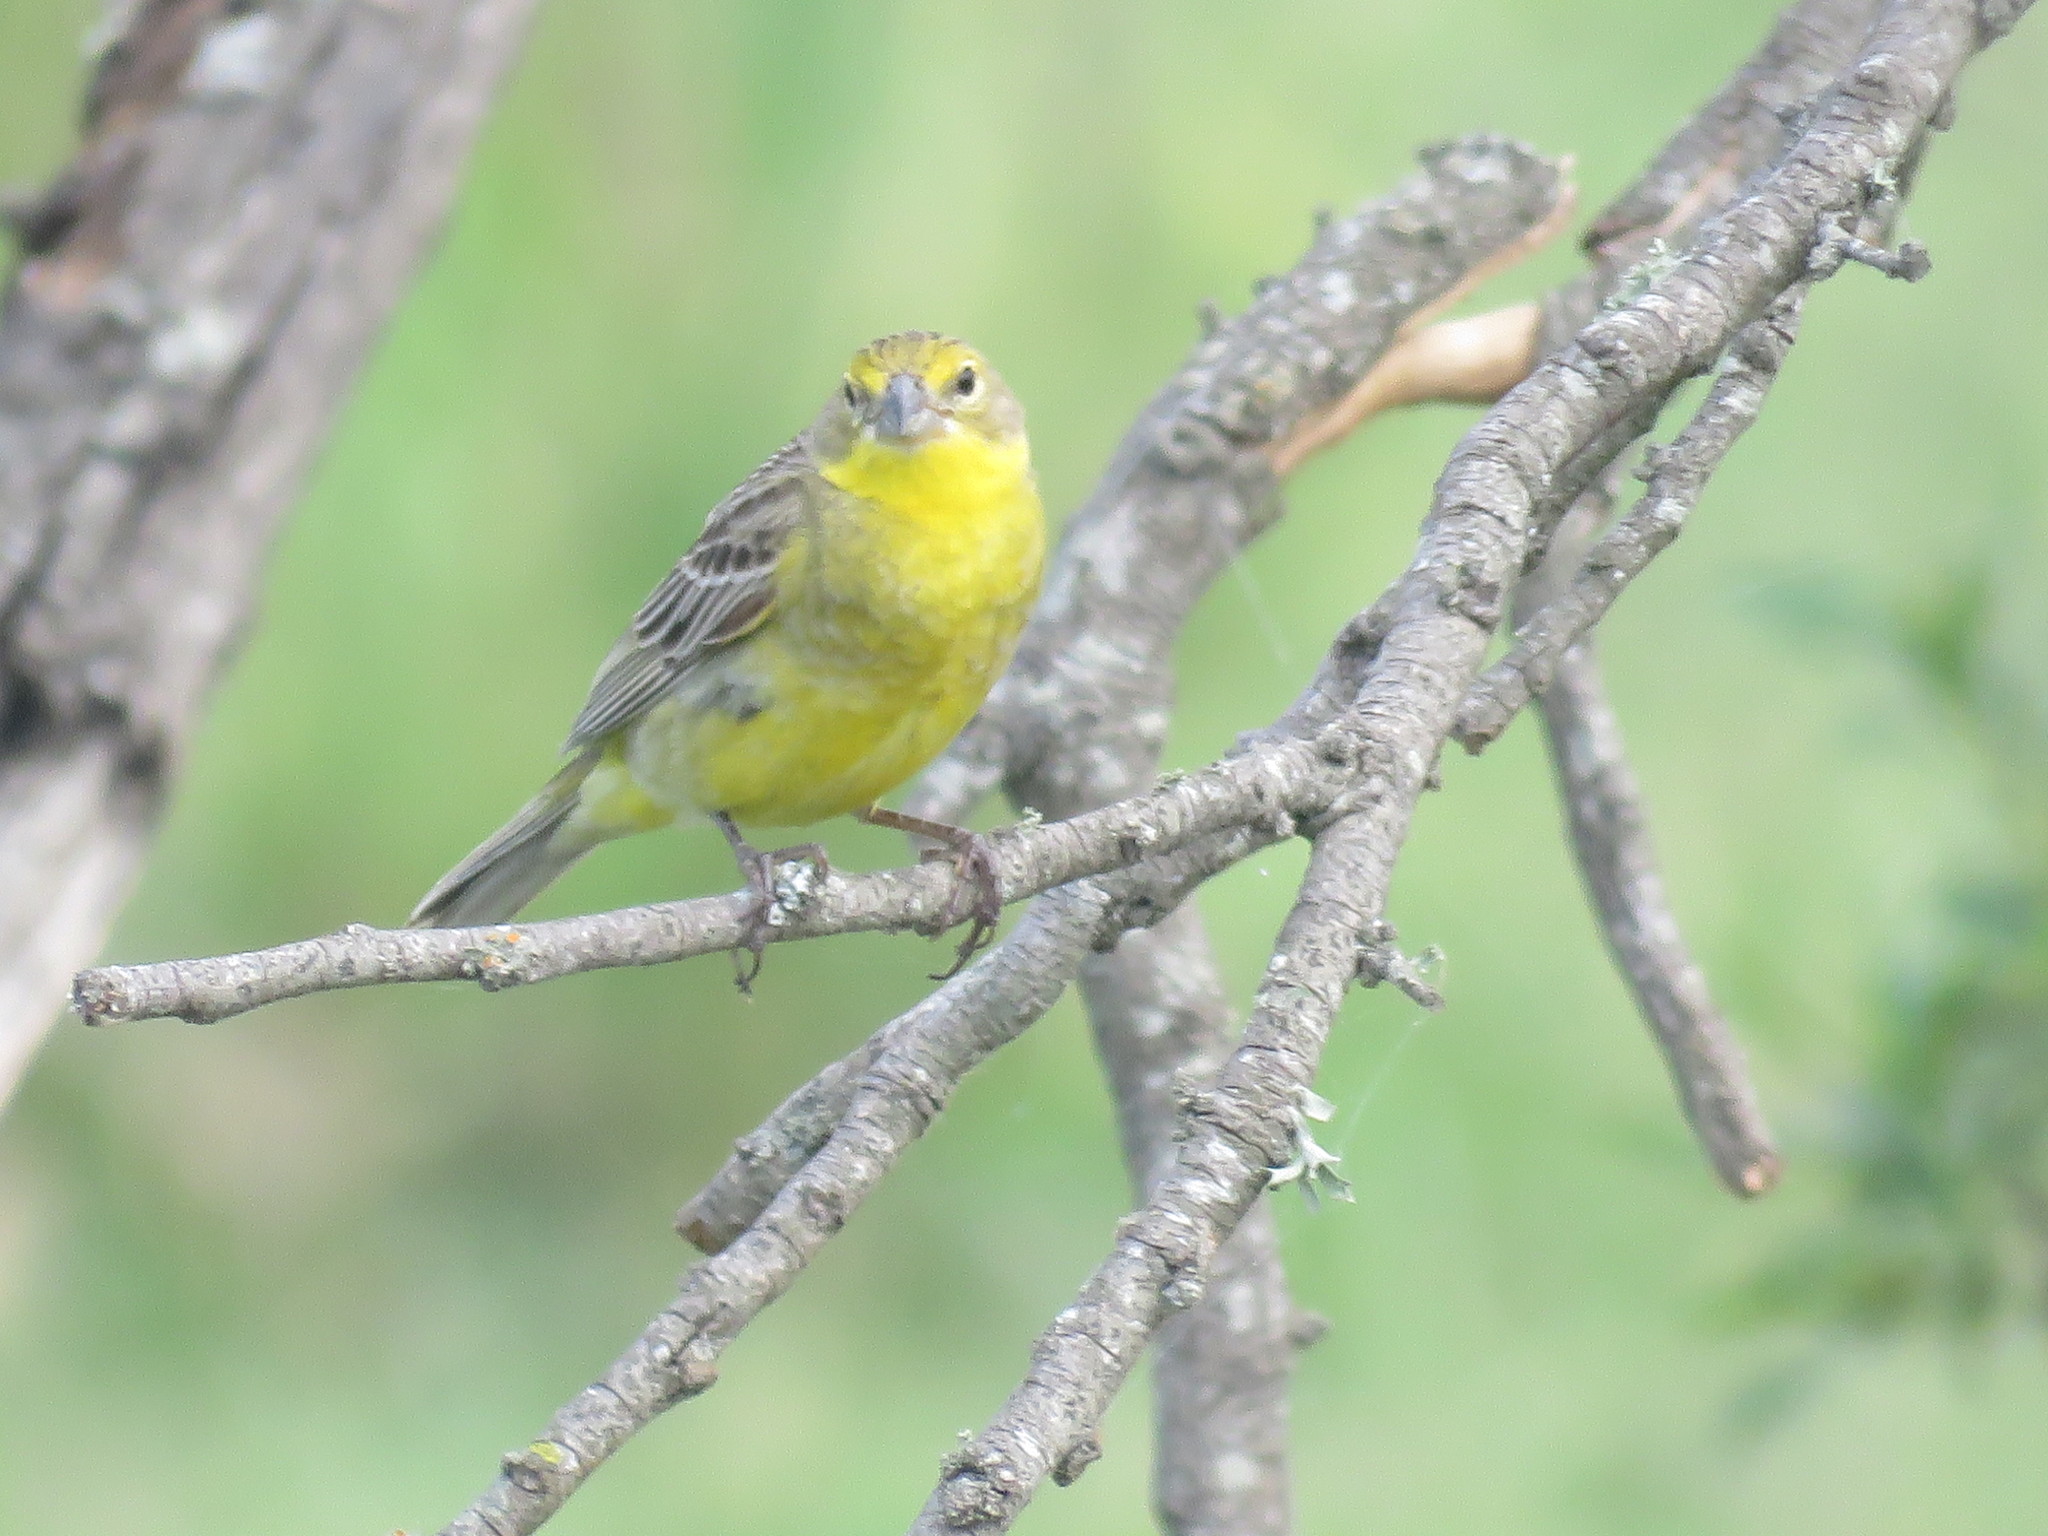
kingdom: Animalia
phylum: Chordata
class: Aves
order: Passeriformes
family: Thraupidae
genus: Sicalis
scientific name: Sicalis luteola
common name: Grassland yellow-finch
